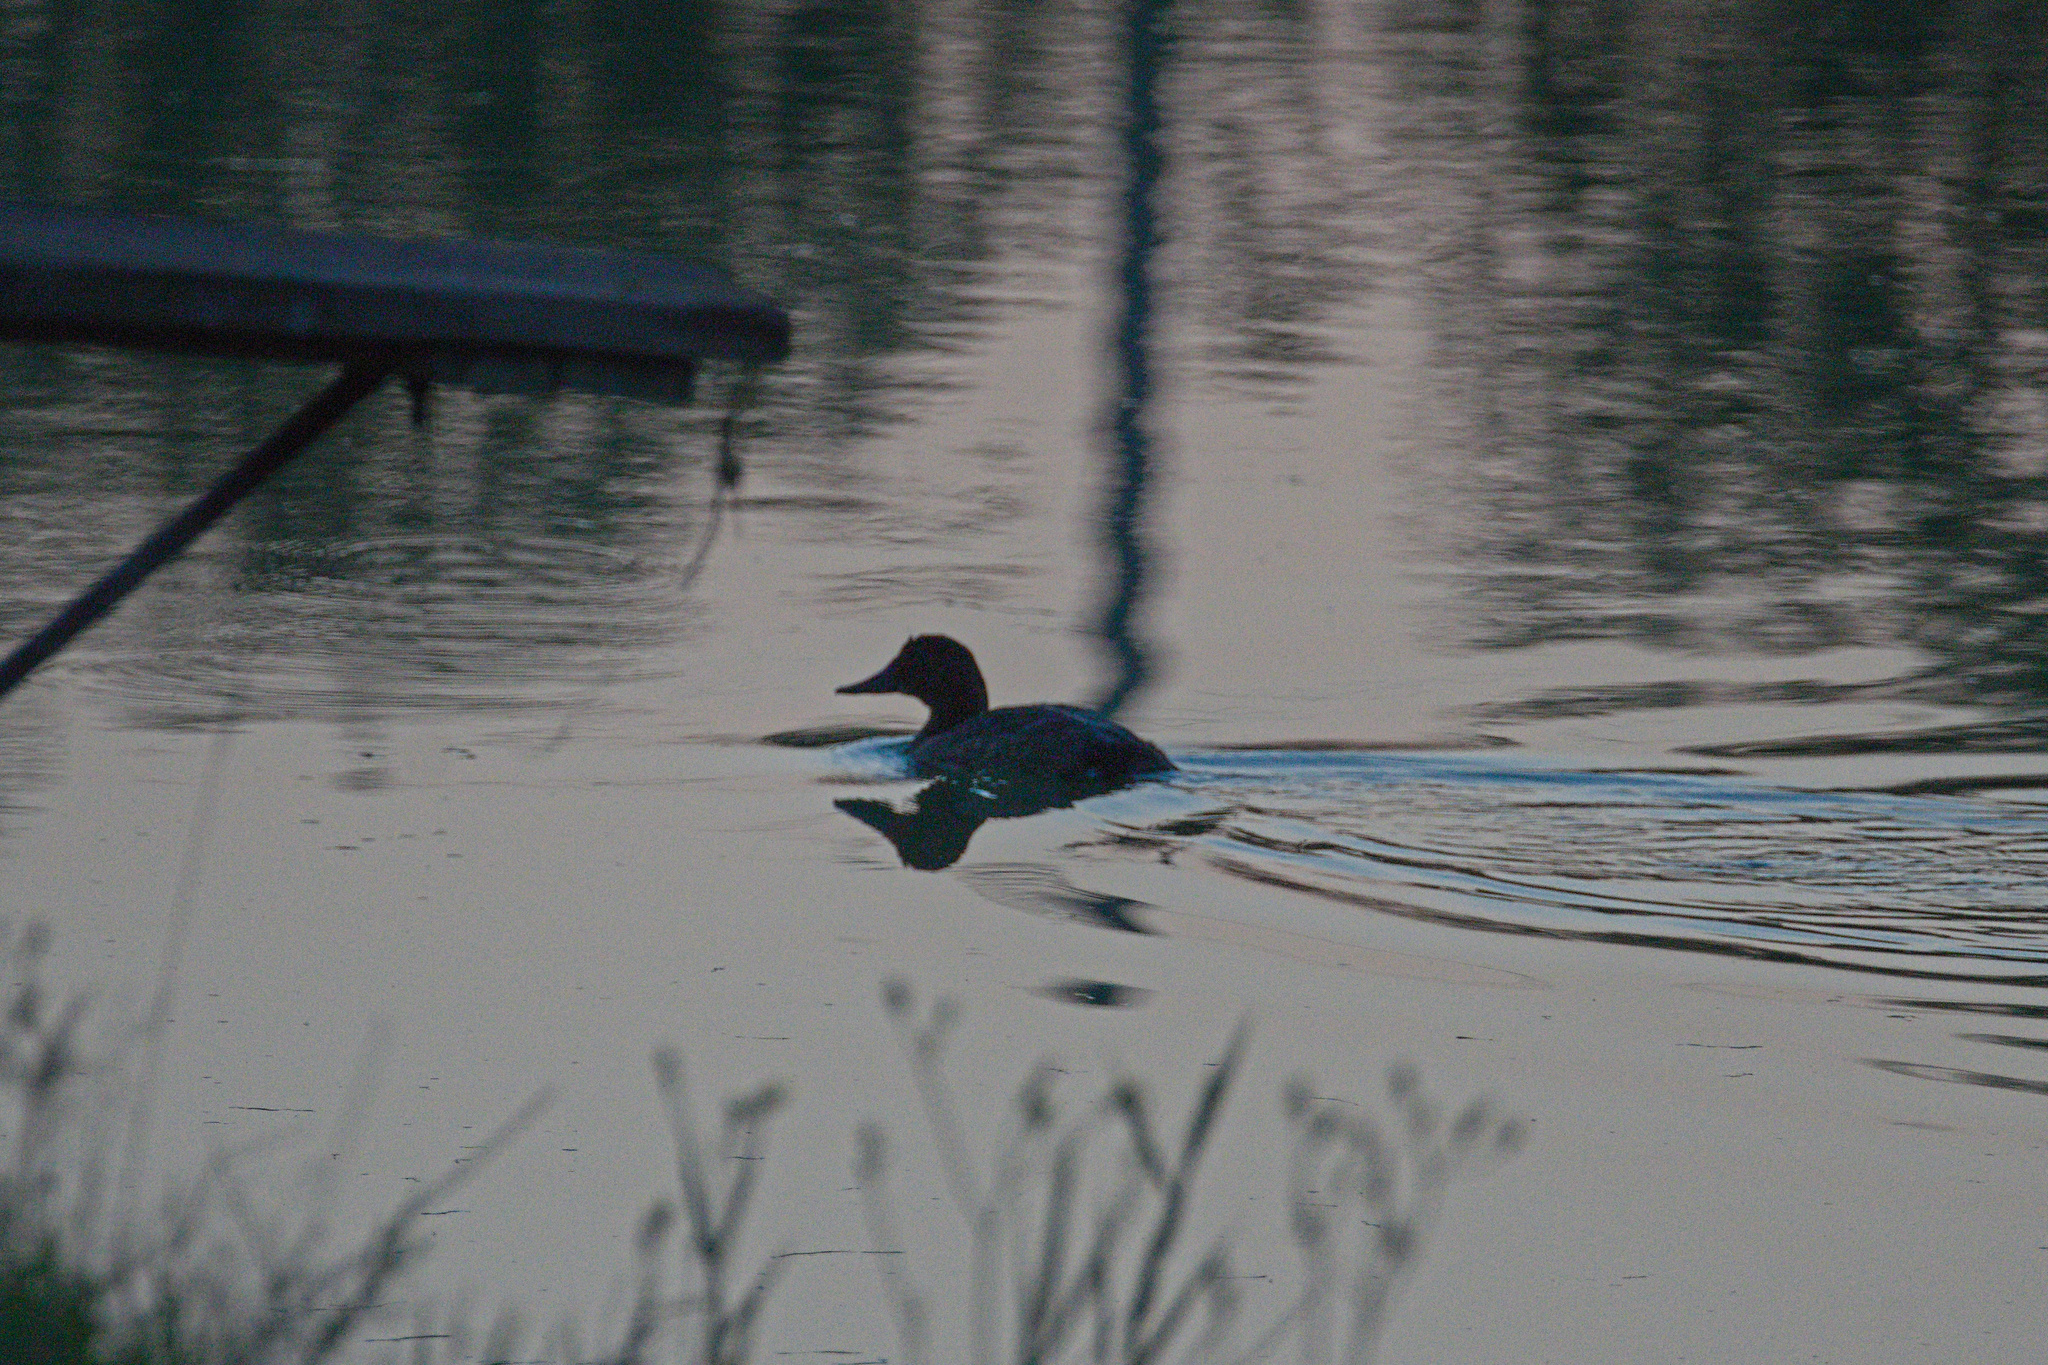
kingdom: Animalia
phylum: Chordata
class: Aves
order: Anseriformes
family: Anatidae
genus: Aythya
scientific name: Aythya ferina
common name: Common pochard
